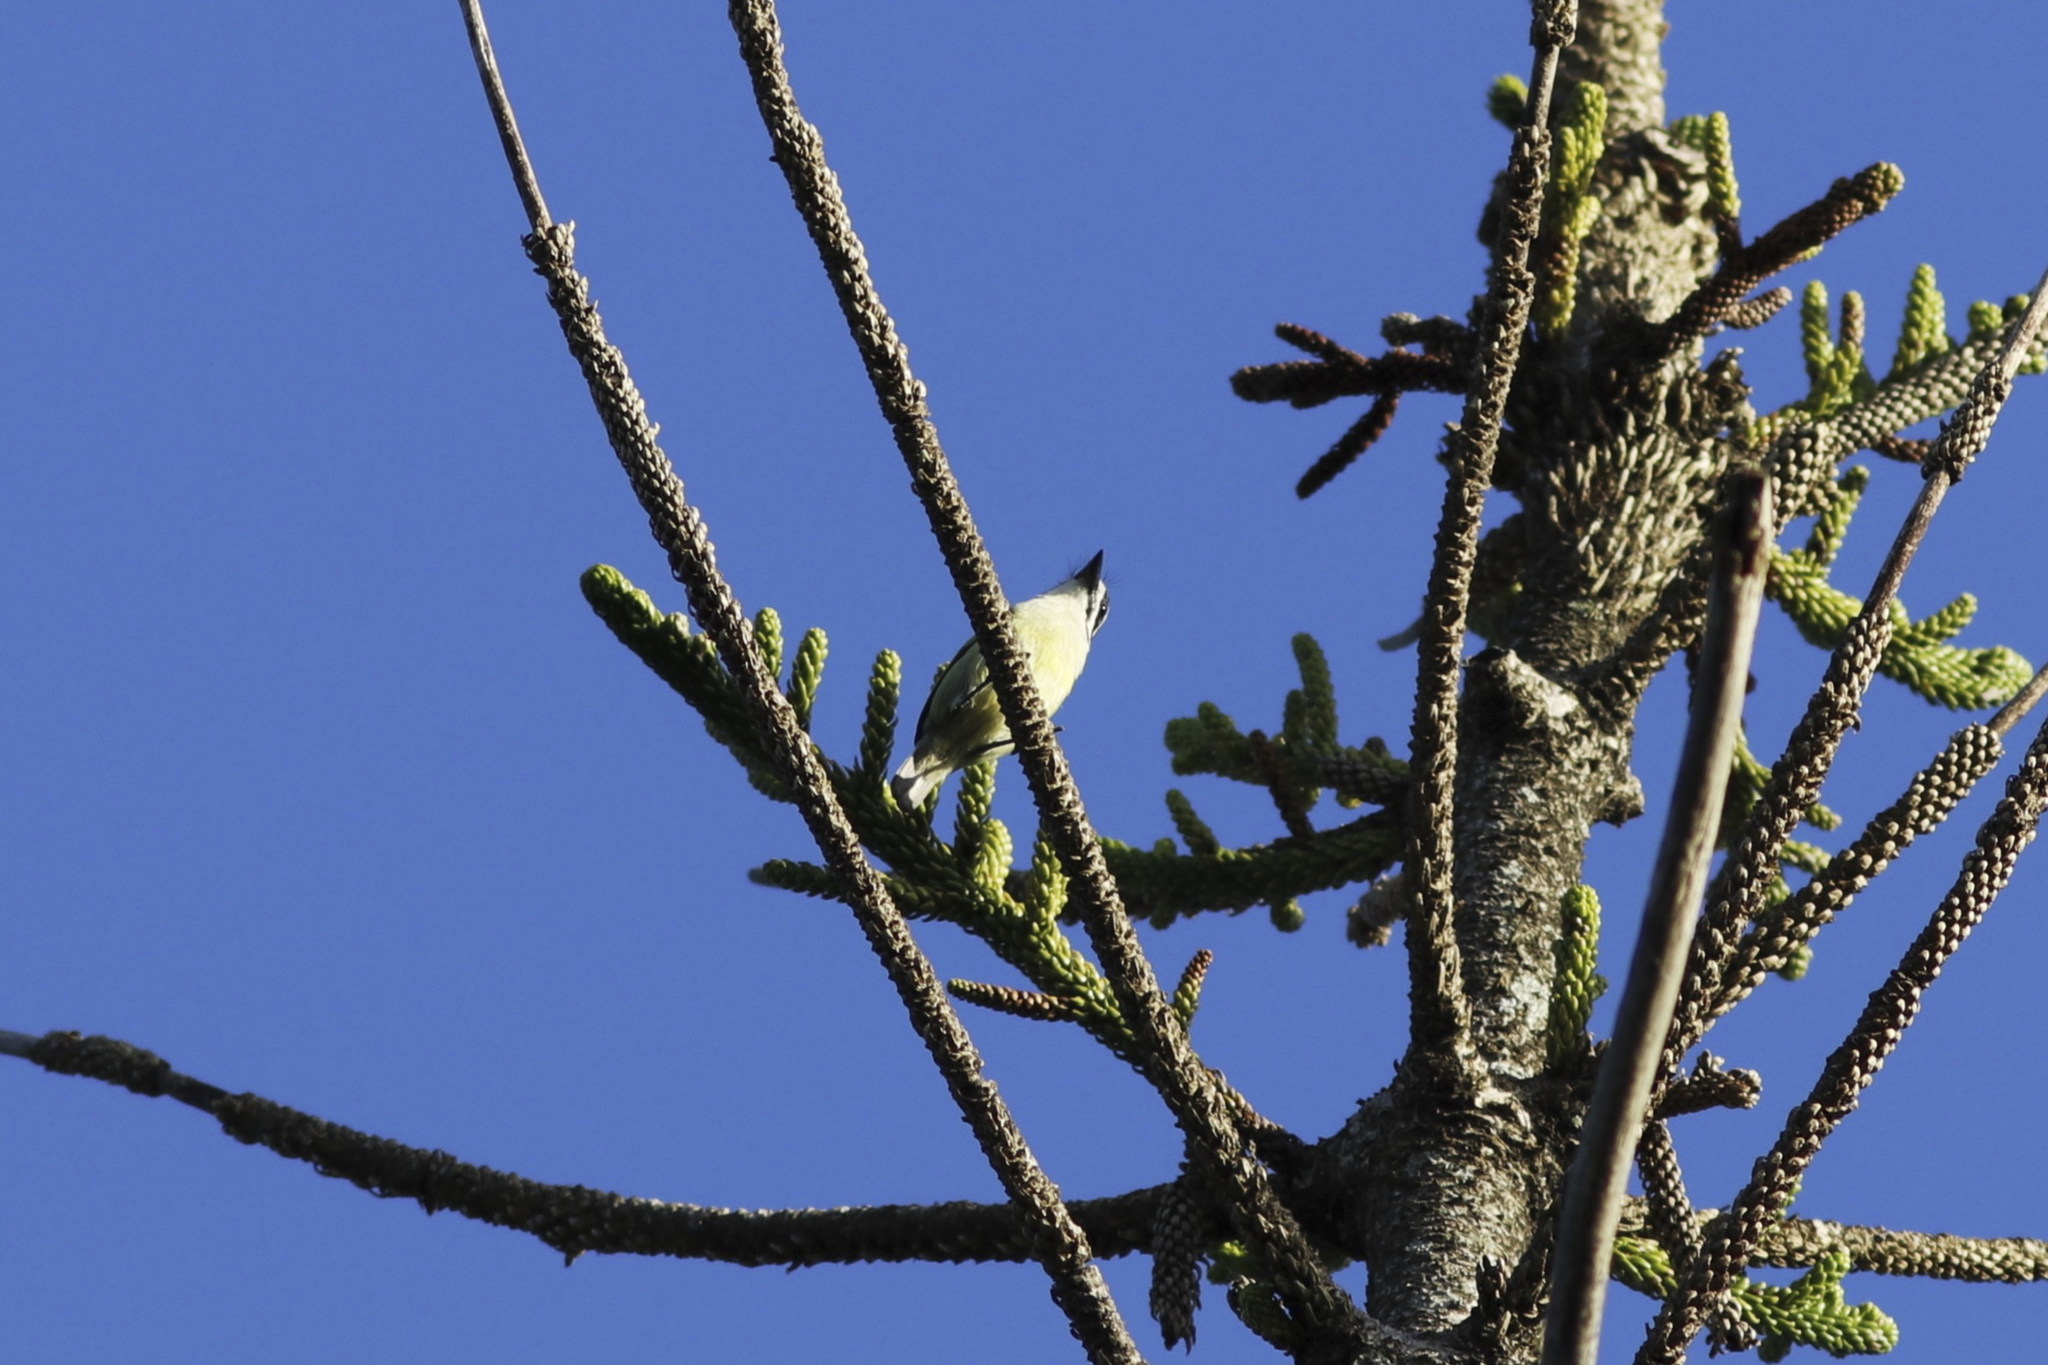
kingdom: Animalia
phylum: Chordata
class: Aves
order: Piciformes
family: Lybiidae
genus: Pogoniulus
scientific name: Pogoniulus bilineatus
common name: Yellow-rumped tinkerbird
